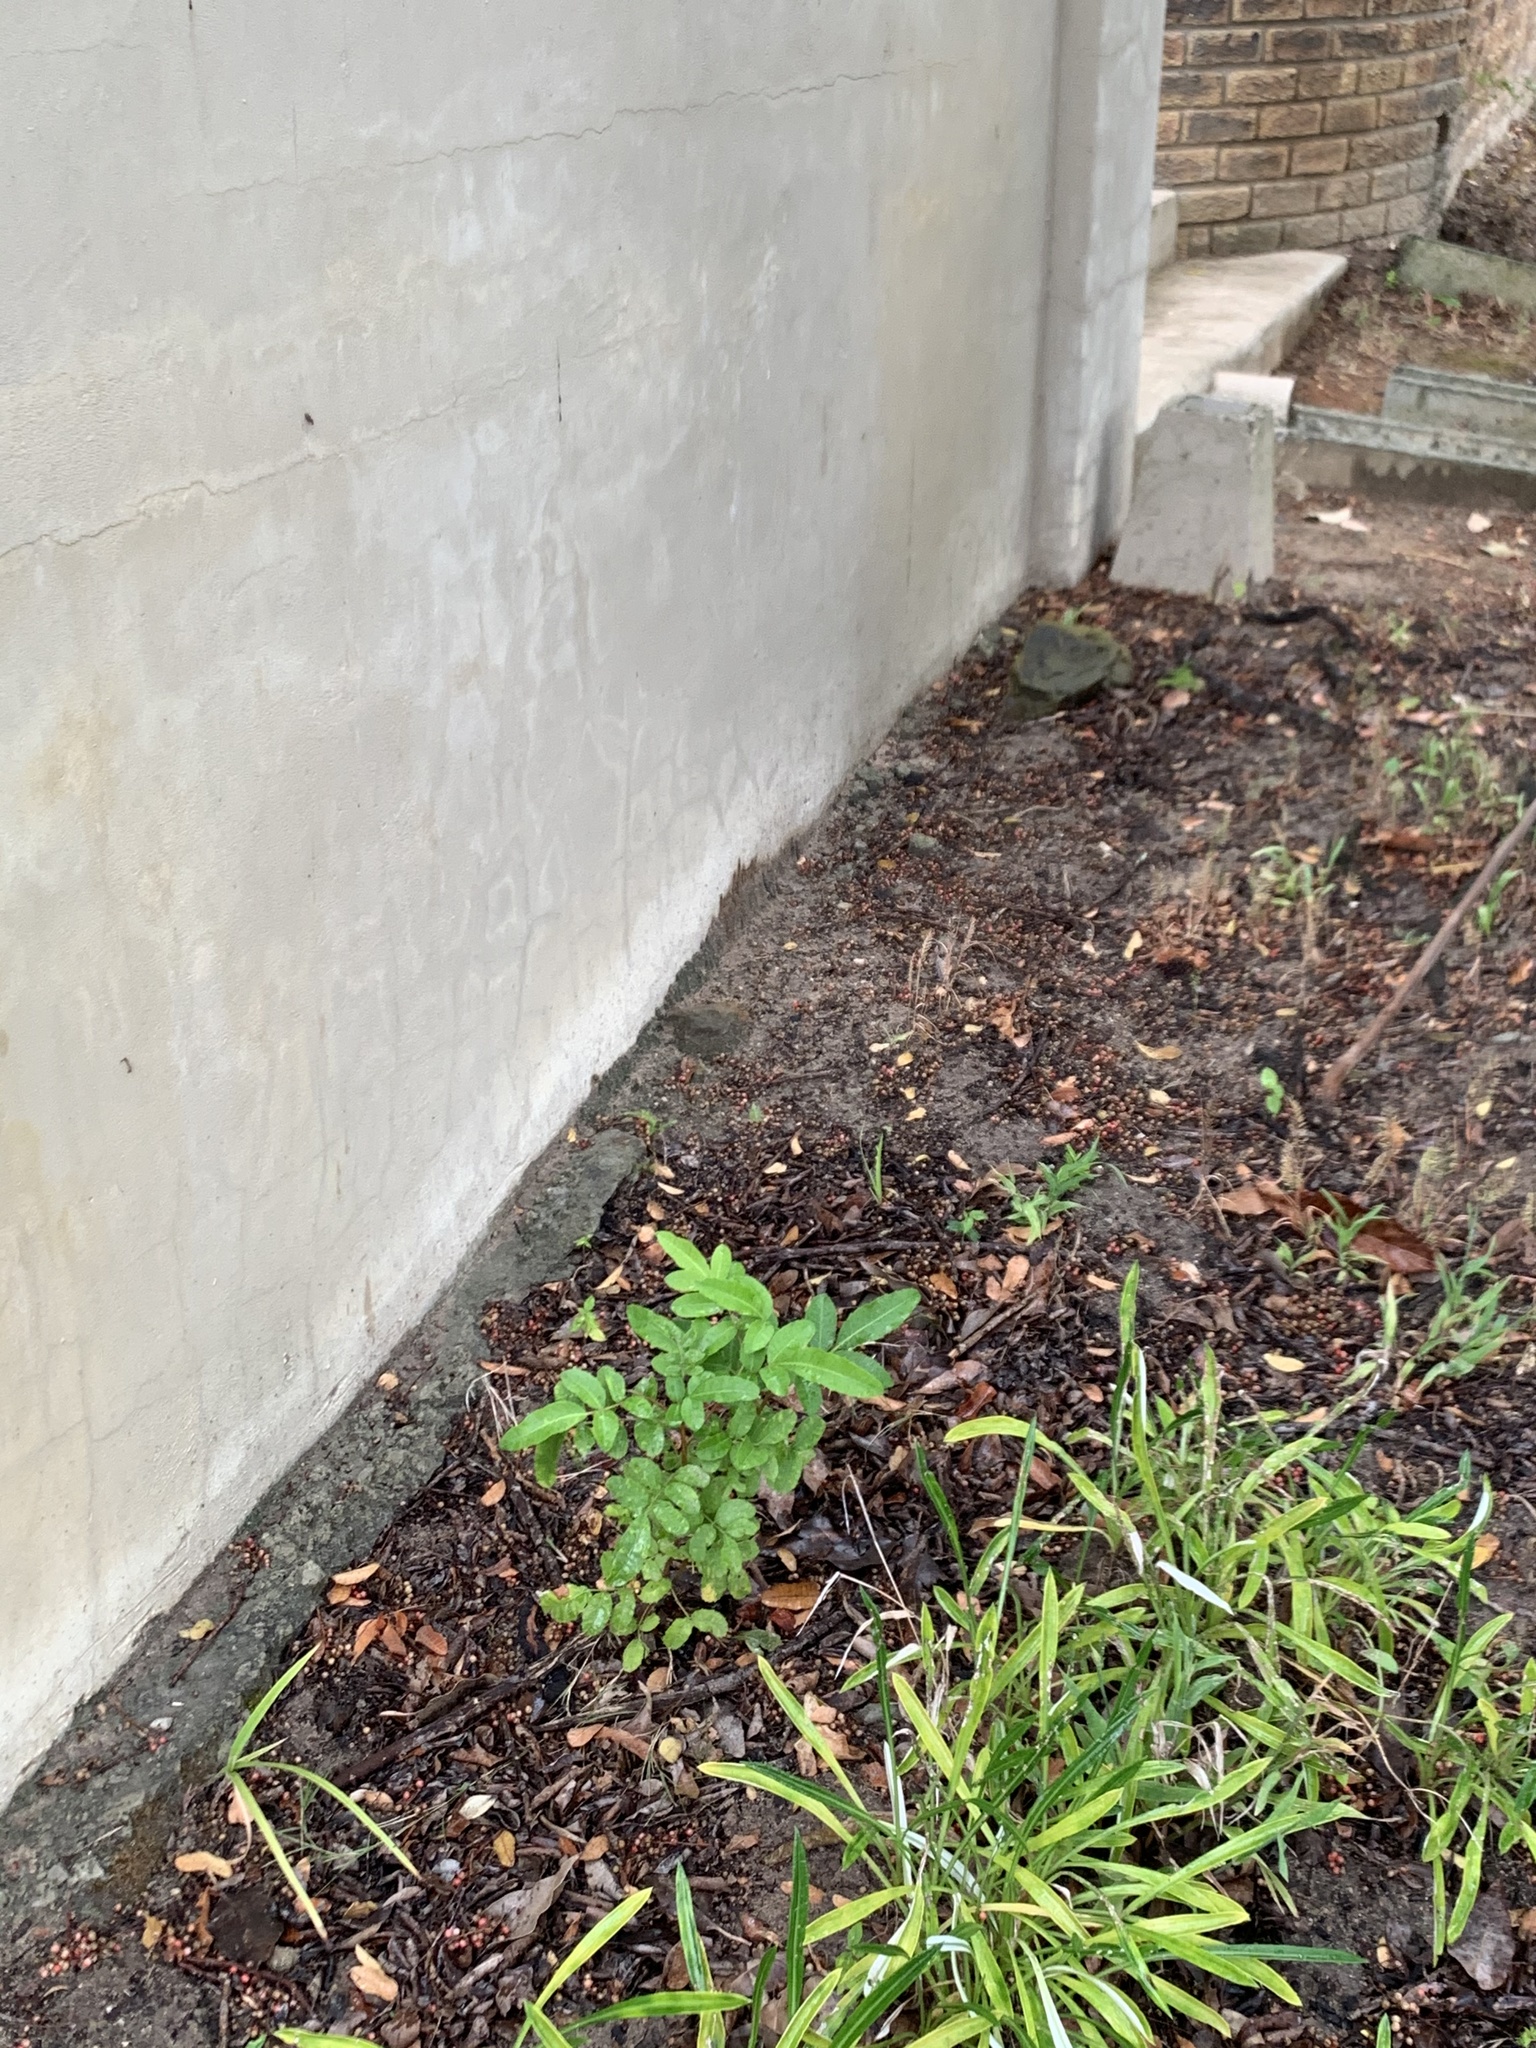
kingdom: Plantae
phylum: Tracheophyta
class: Magnoliopsida
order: Sapindales
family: Anacardiaceae
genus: Schinus
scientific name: Schinus terebinthifolia
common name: Brazilian peppertree
